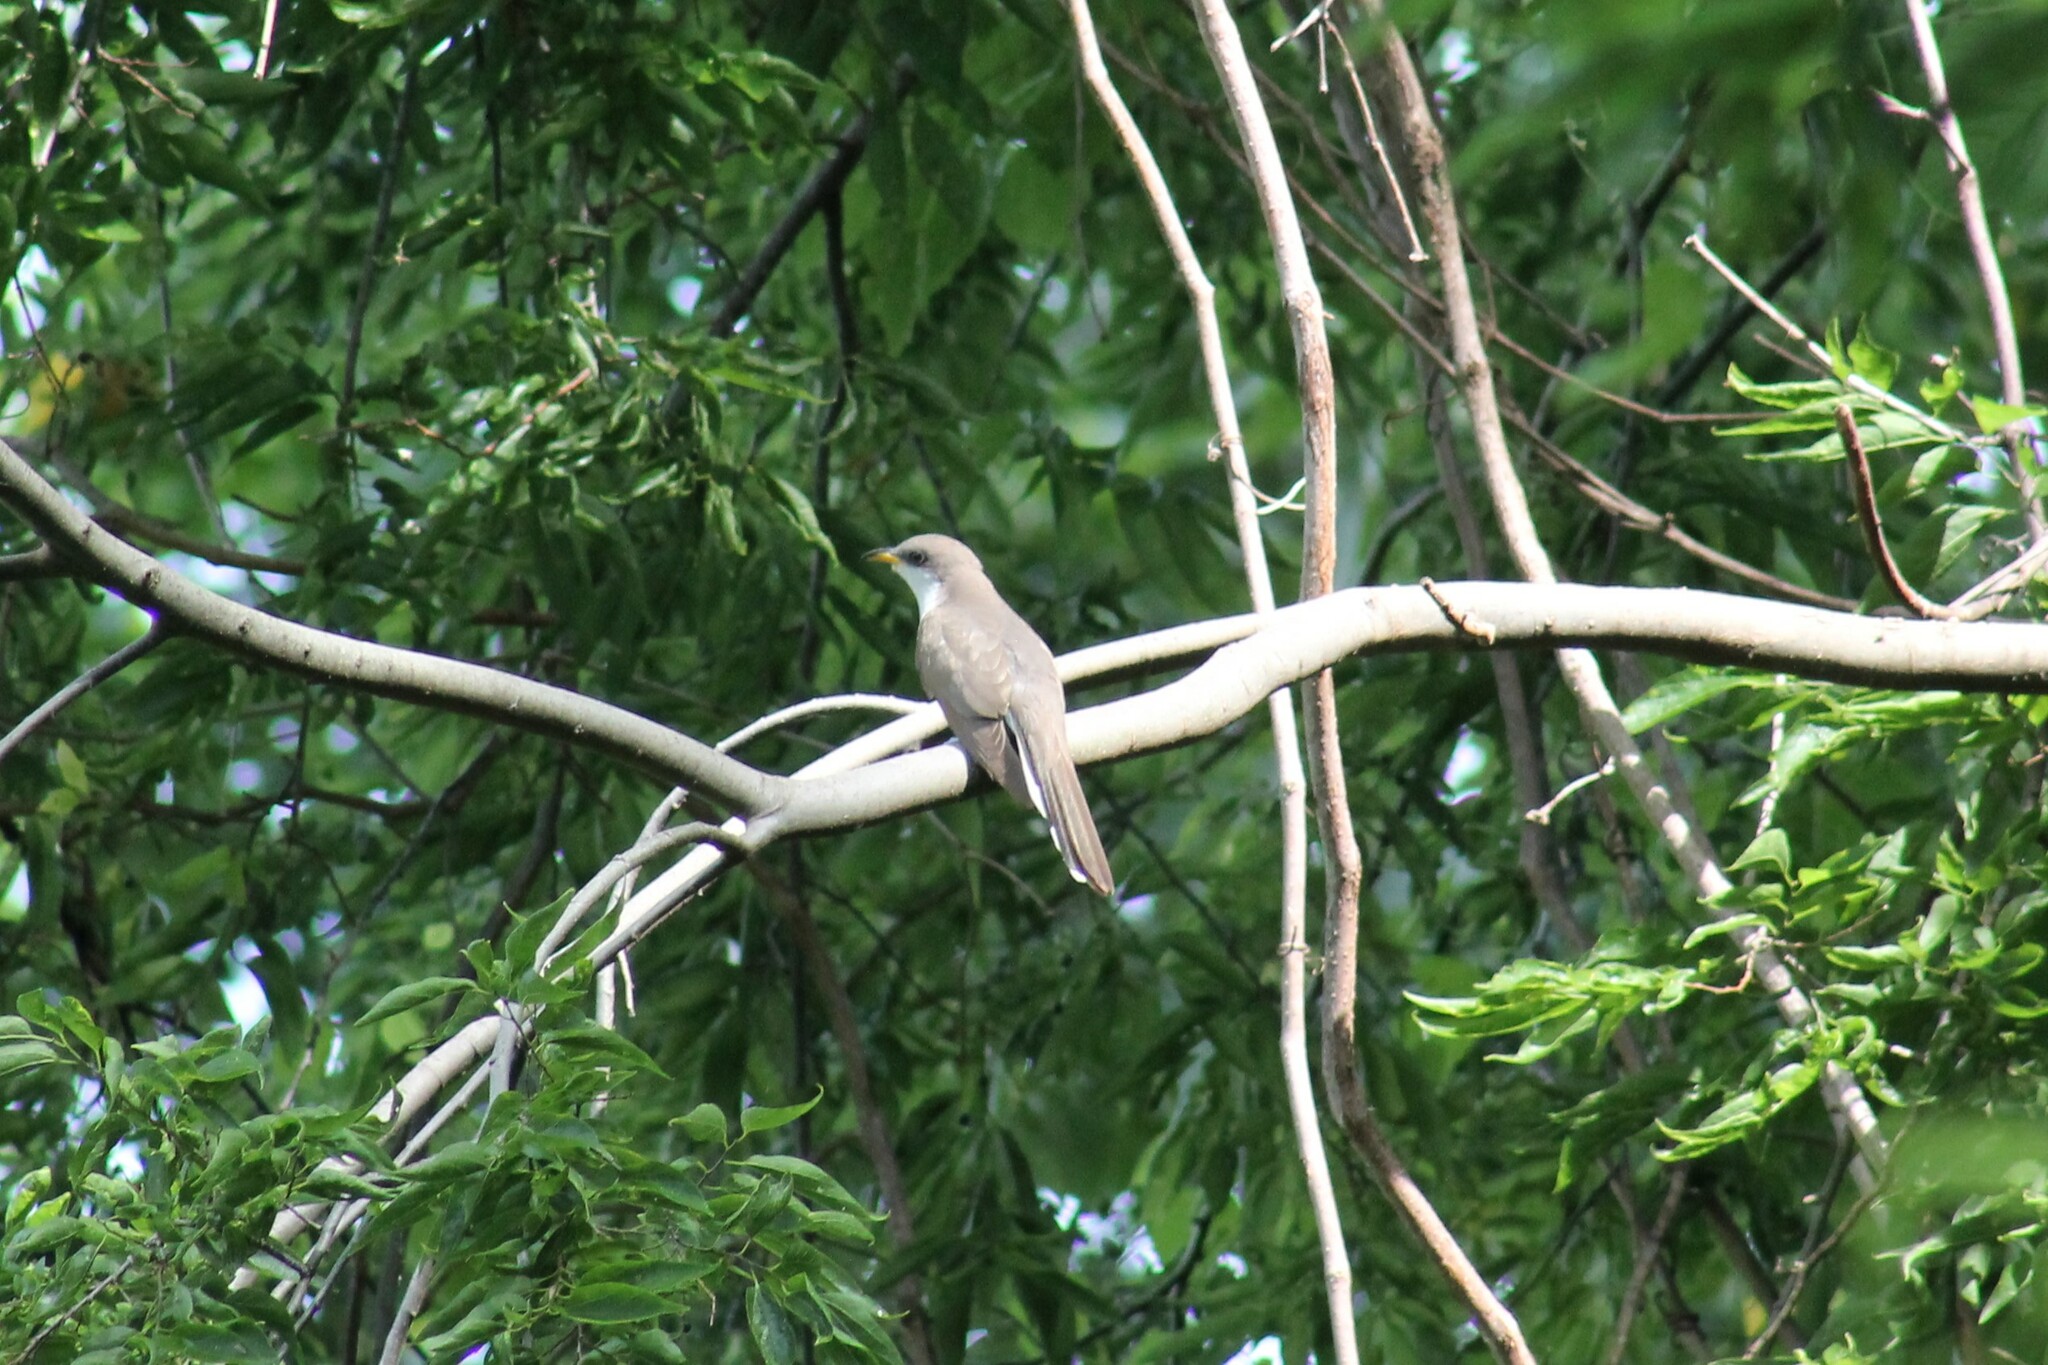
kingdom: Animalia
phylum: Chordata
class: Aves
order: Cuculiformes
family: Cuculidae
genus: Coccyzus
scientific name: Coccyzus americanus
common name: Yellow-billed cuckoo
